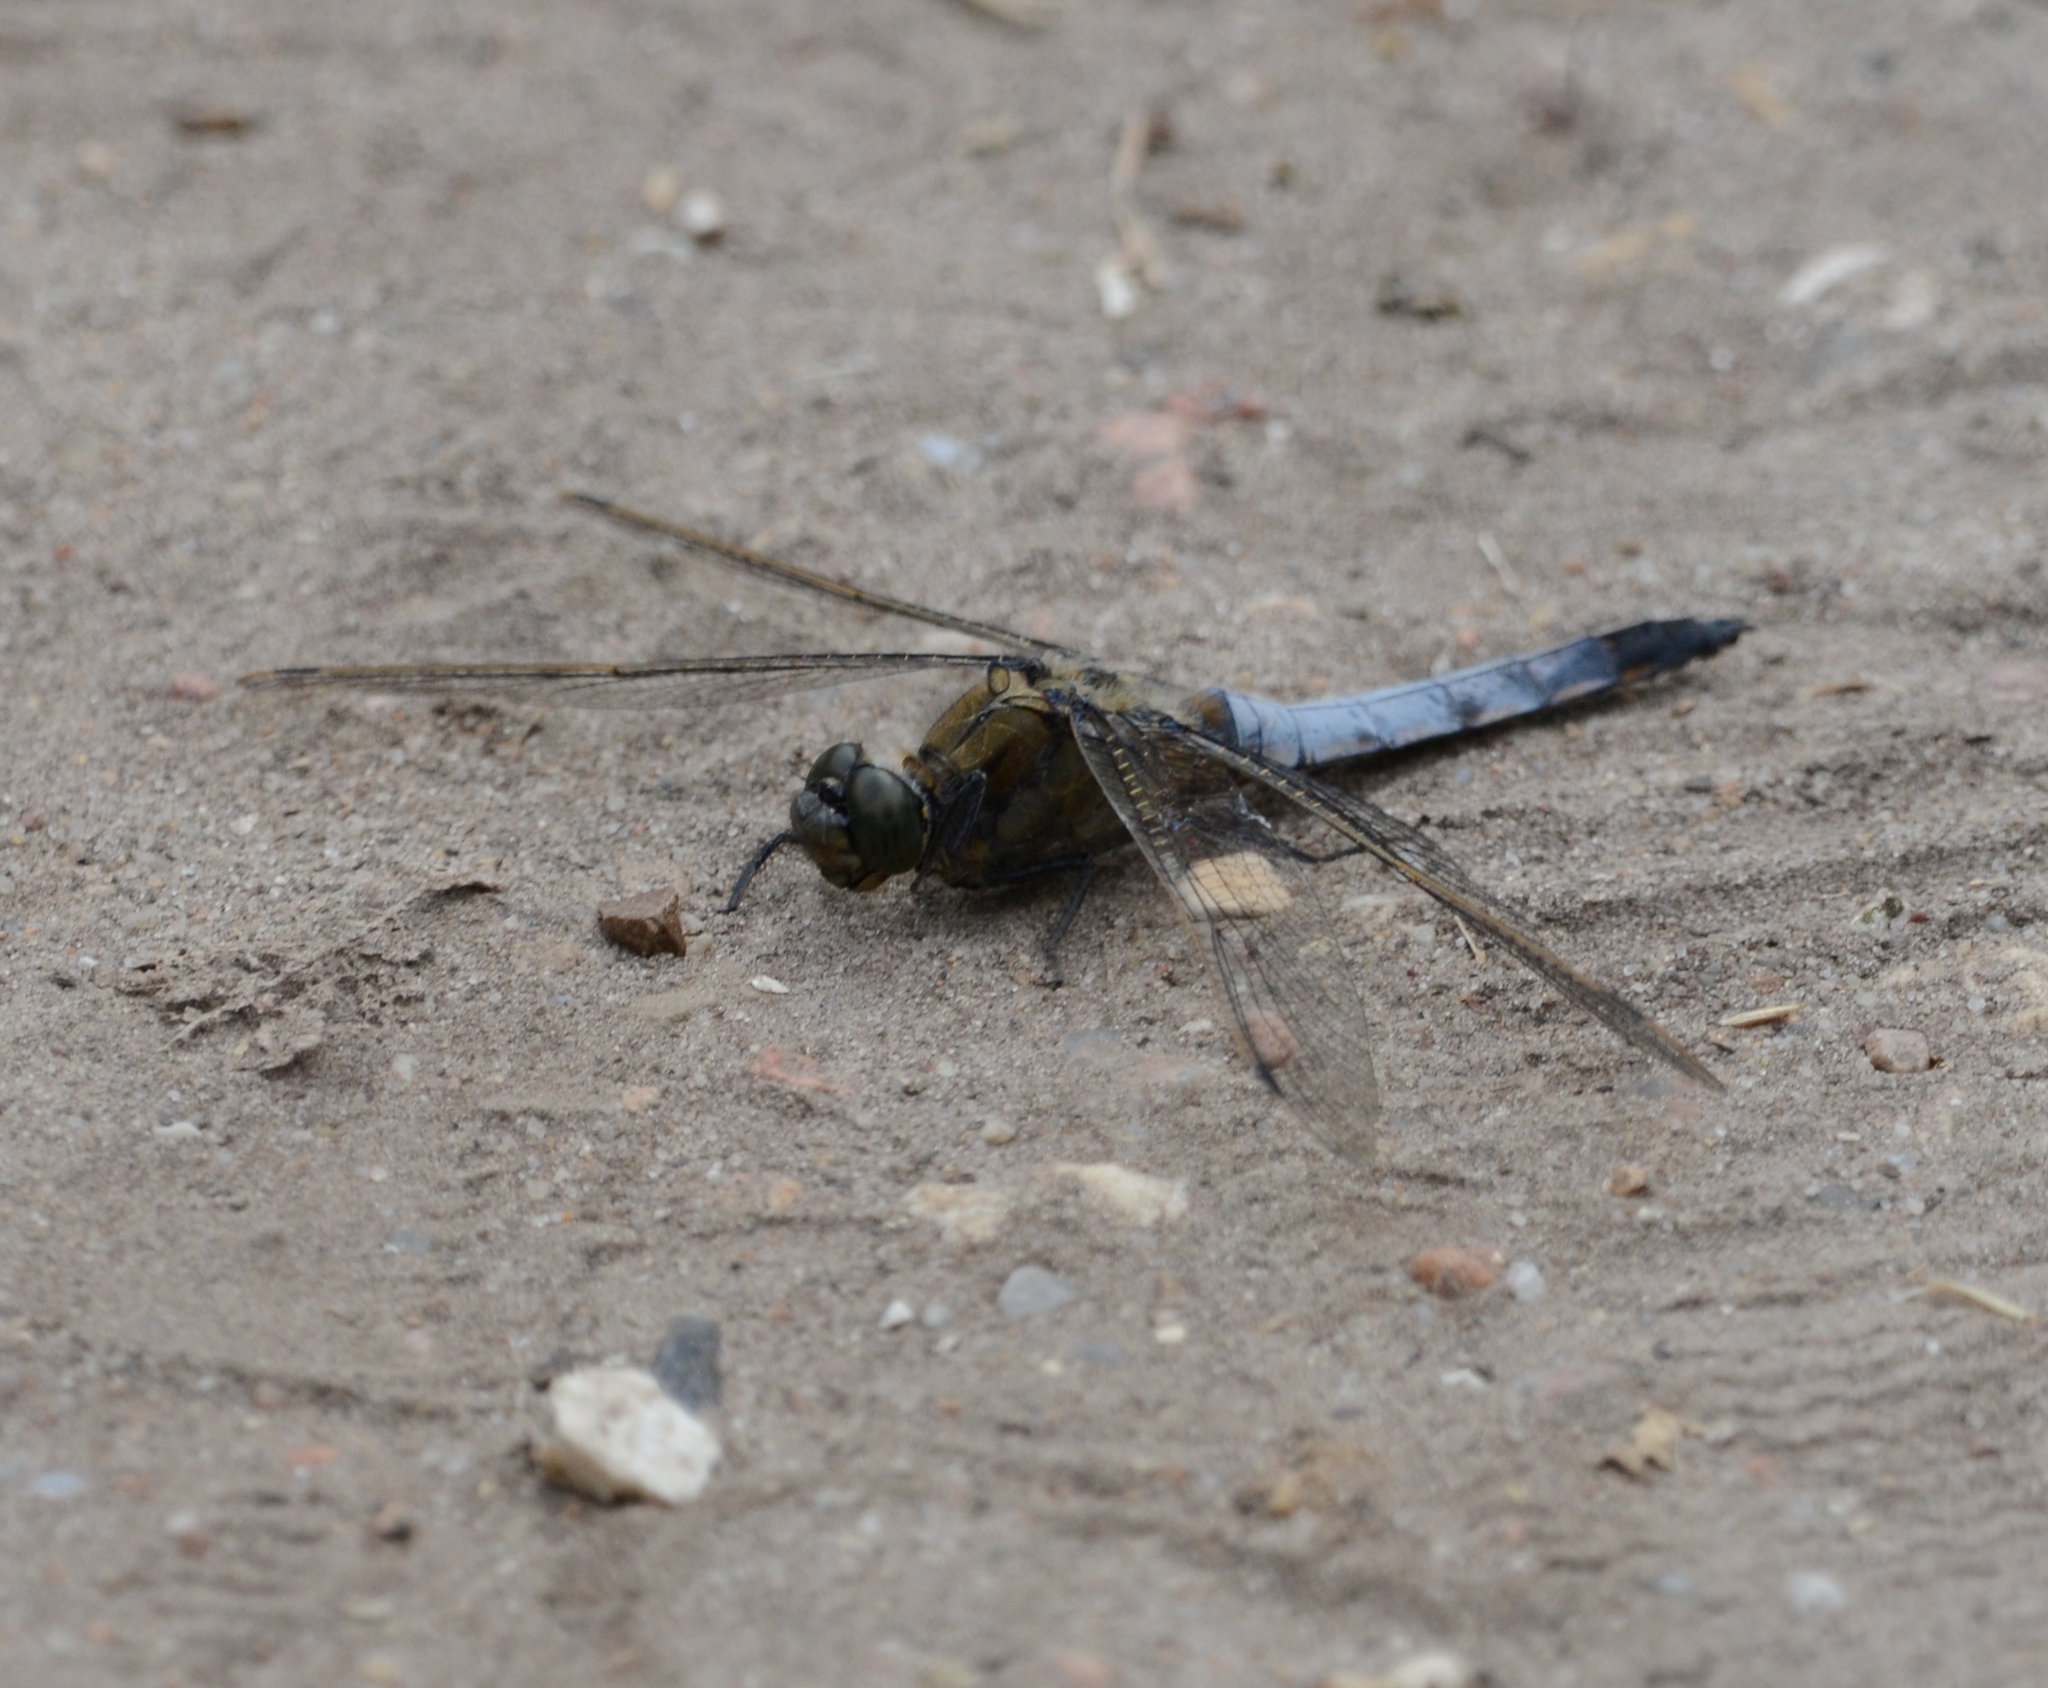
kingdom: Animalia
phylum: Arthropoda
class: Insecta
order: Odonata
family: Libellulidae
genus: Orthetrum
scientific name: Orthetrum cancellatum
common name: Black-tailed skimmer
